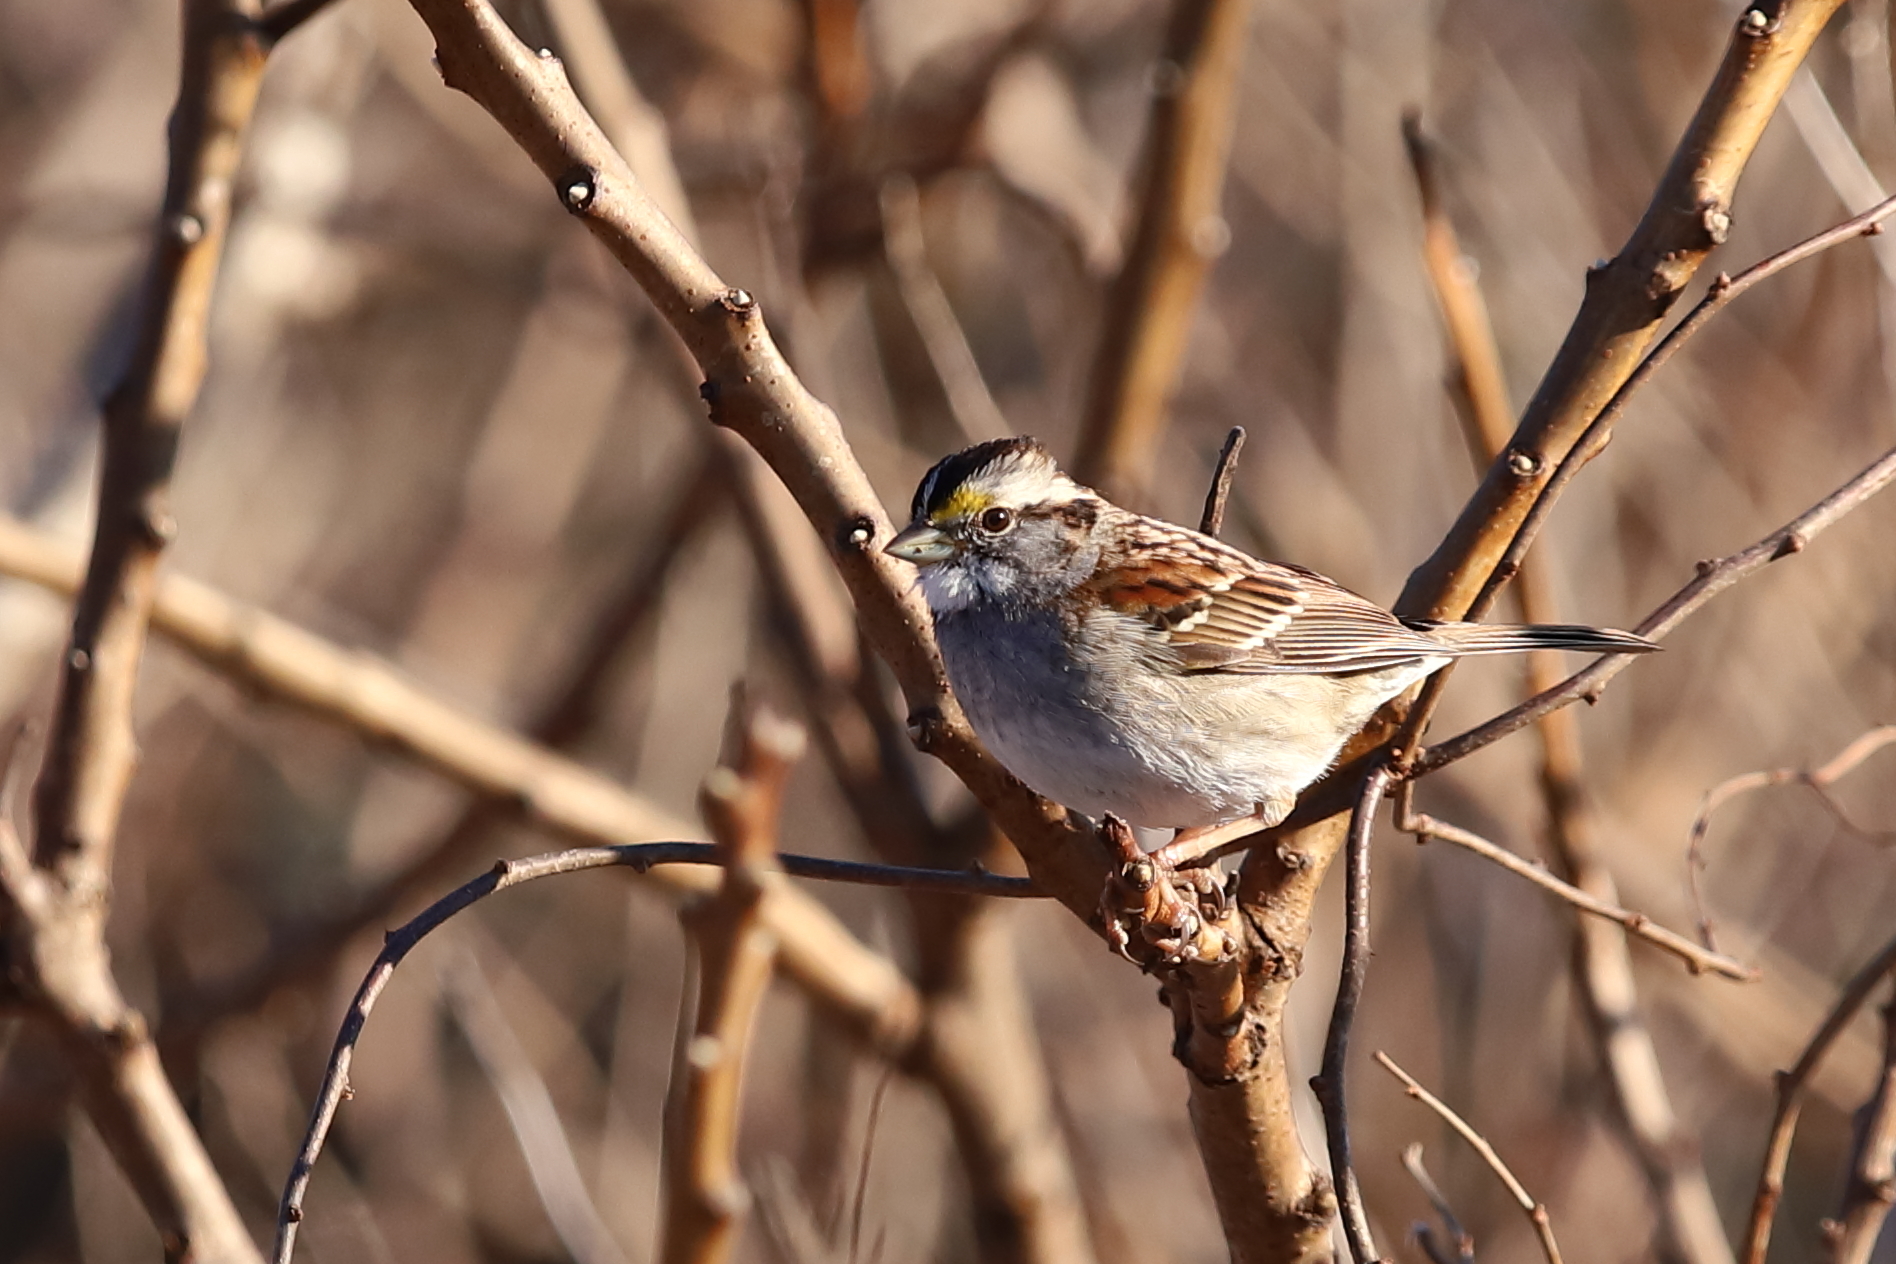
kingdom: Animalia
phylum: Chordata
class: Aves
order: Passeriformes
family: Passerellidae
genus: Zonotrichia
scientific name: Zonotrichia albicollis
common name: White-throated sparrow
